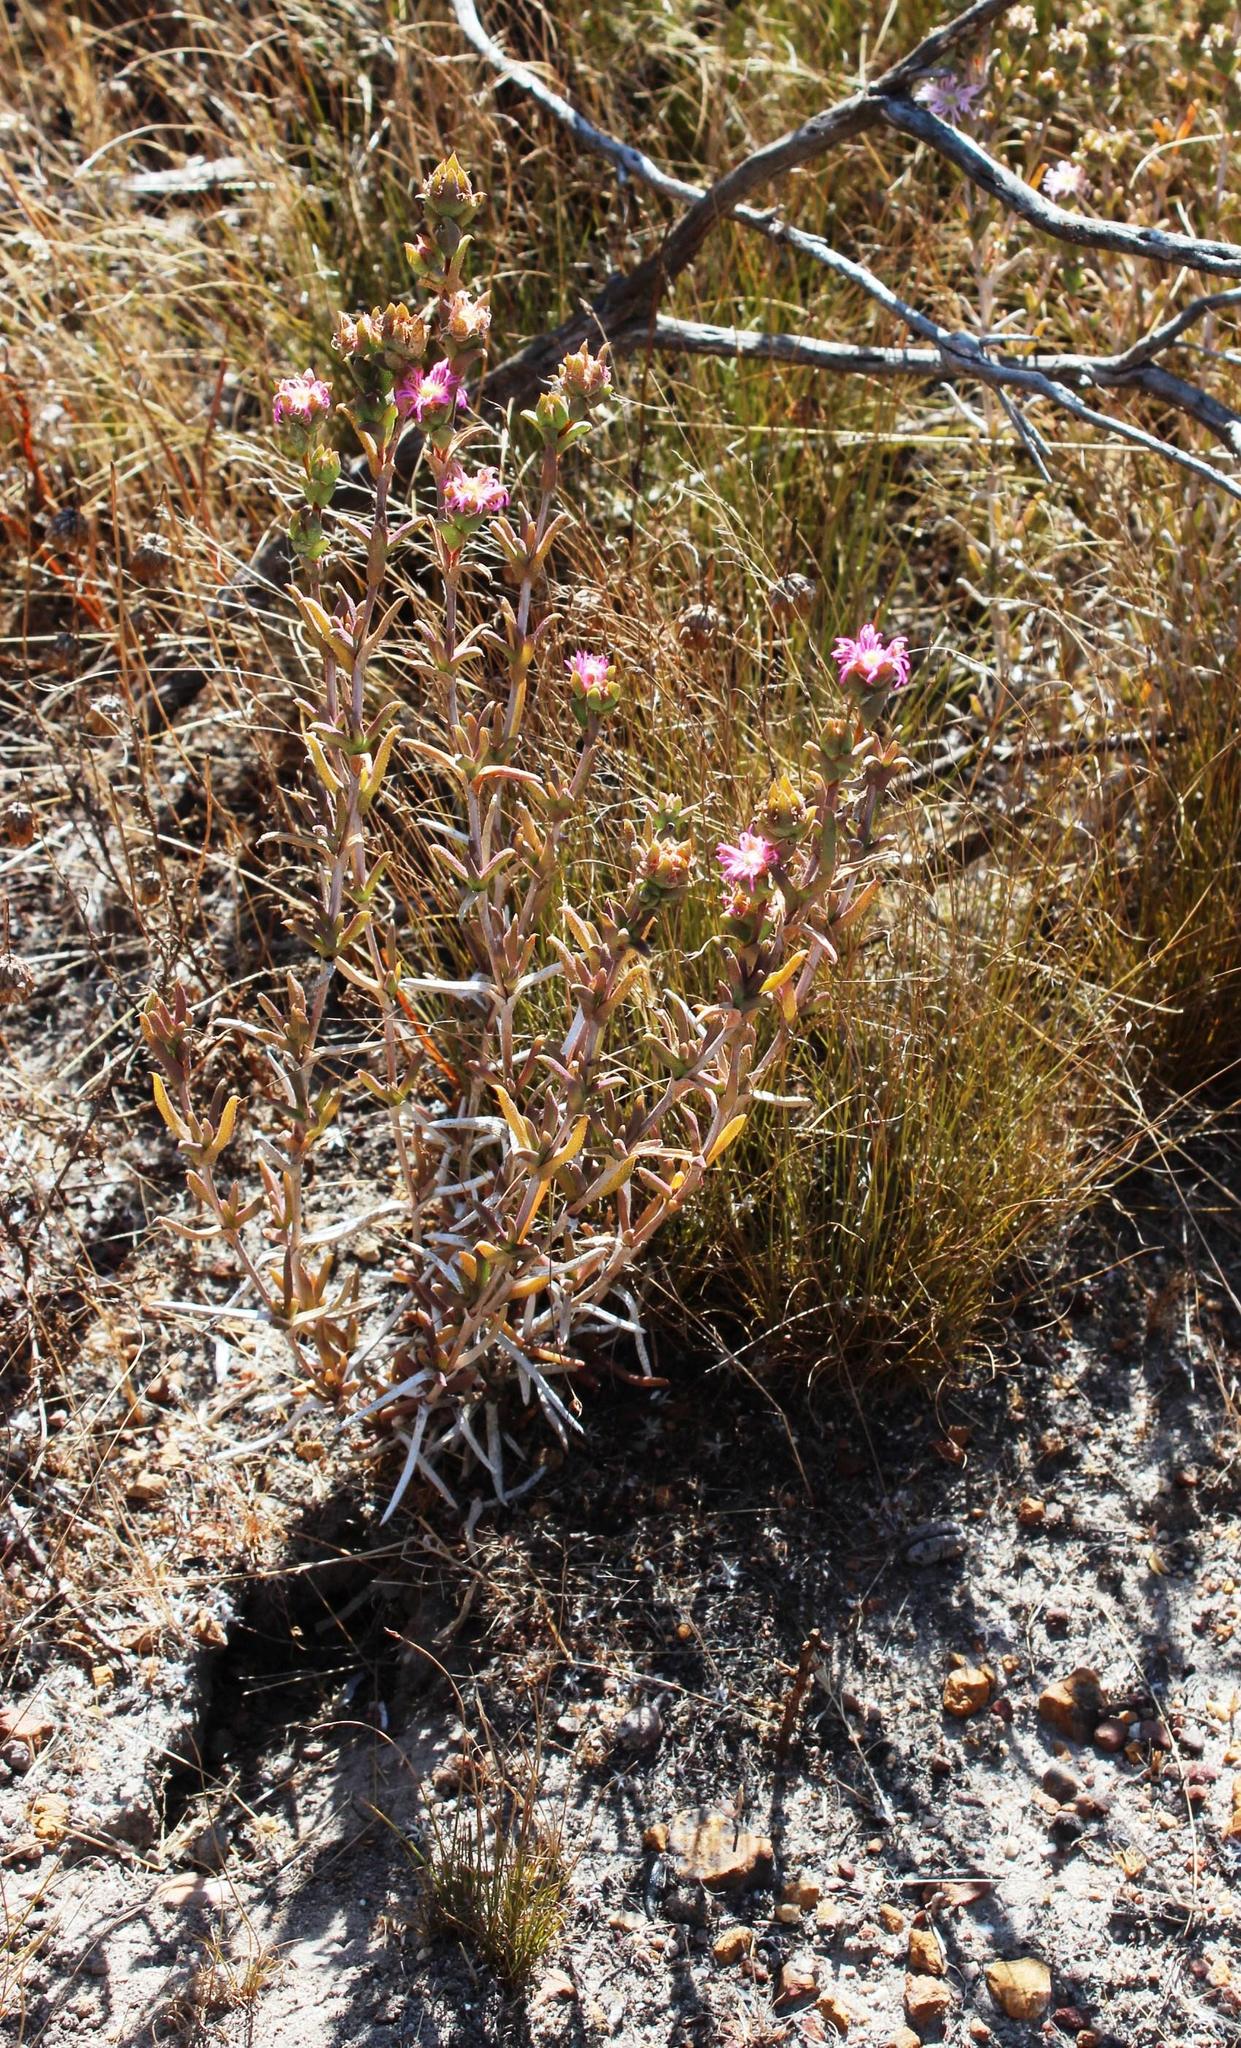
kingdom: Plantae
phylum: Tracheophyta
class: Magnoliopsida
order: Caryophyllales
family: Aizoaceae
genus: Erepsia
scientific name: Erepsia bracteata
